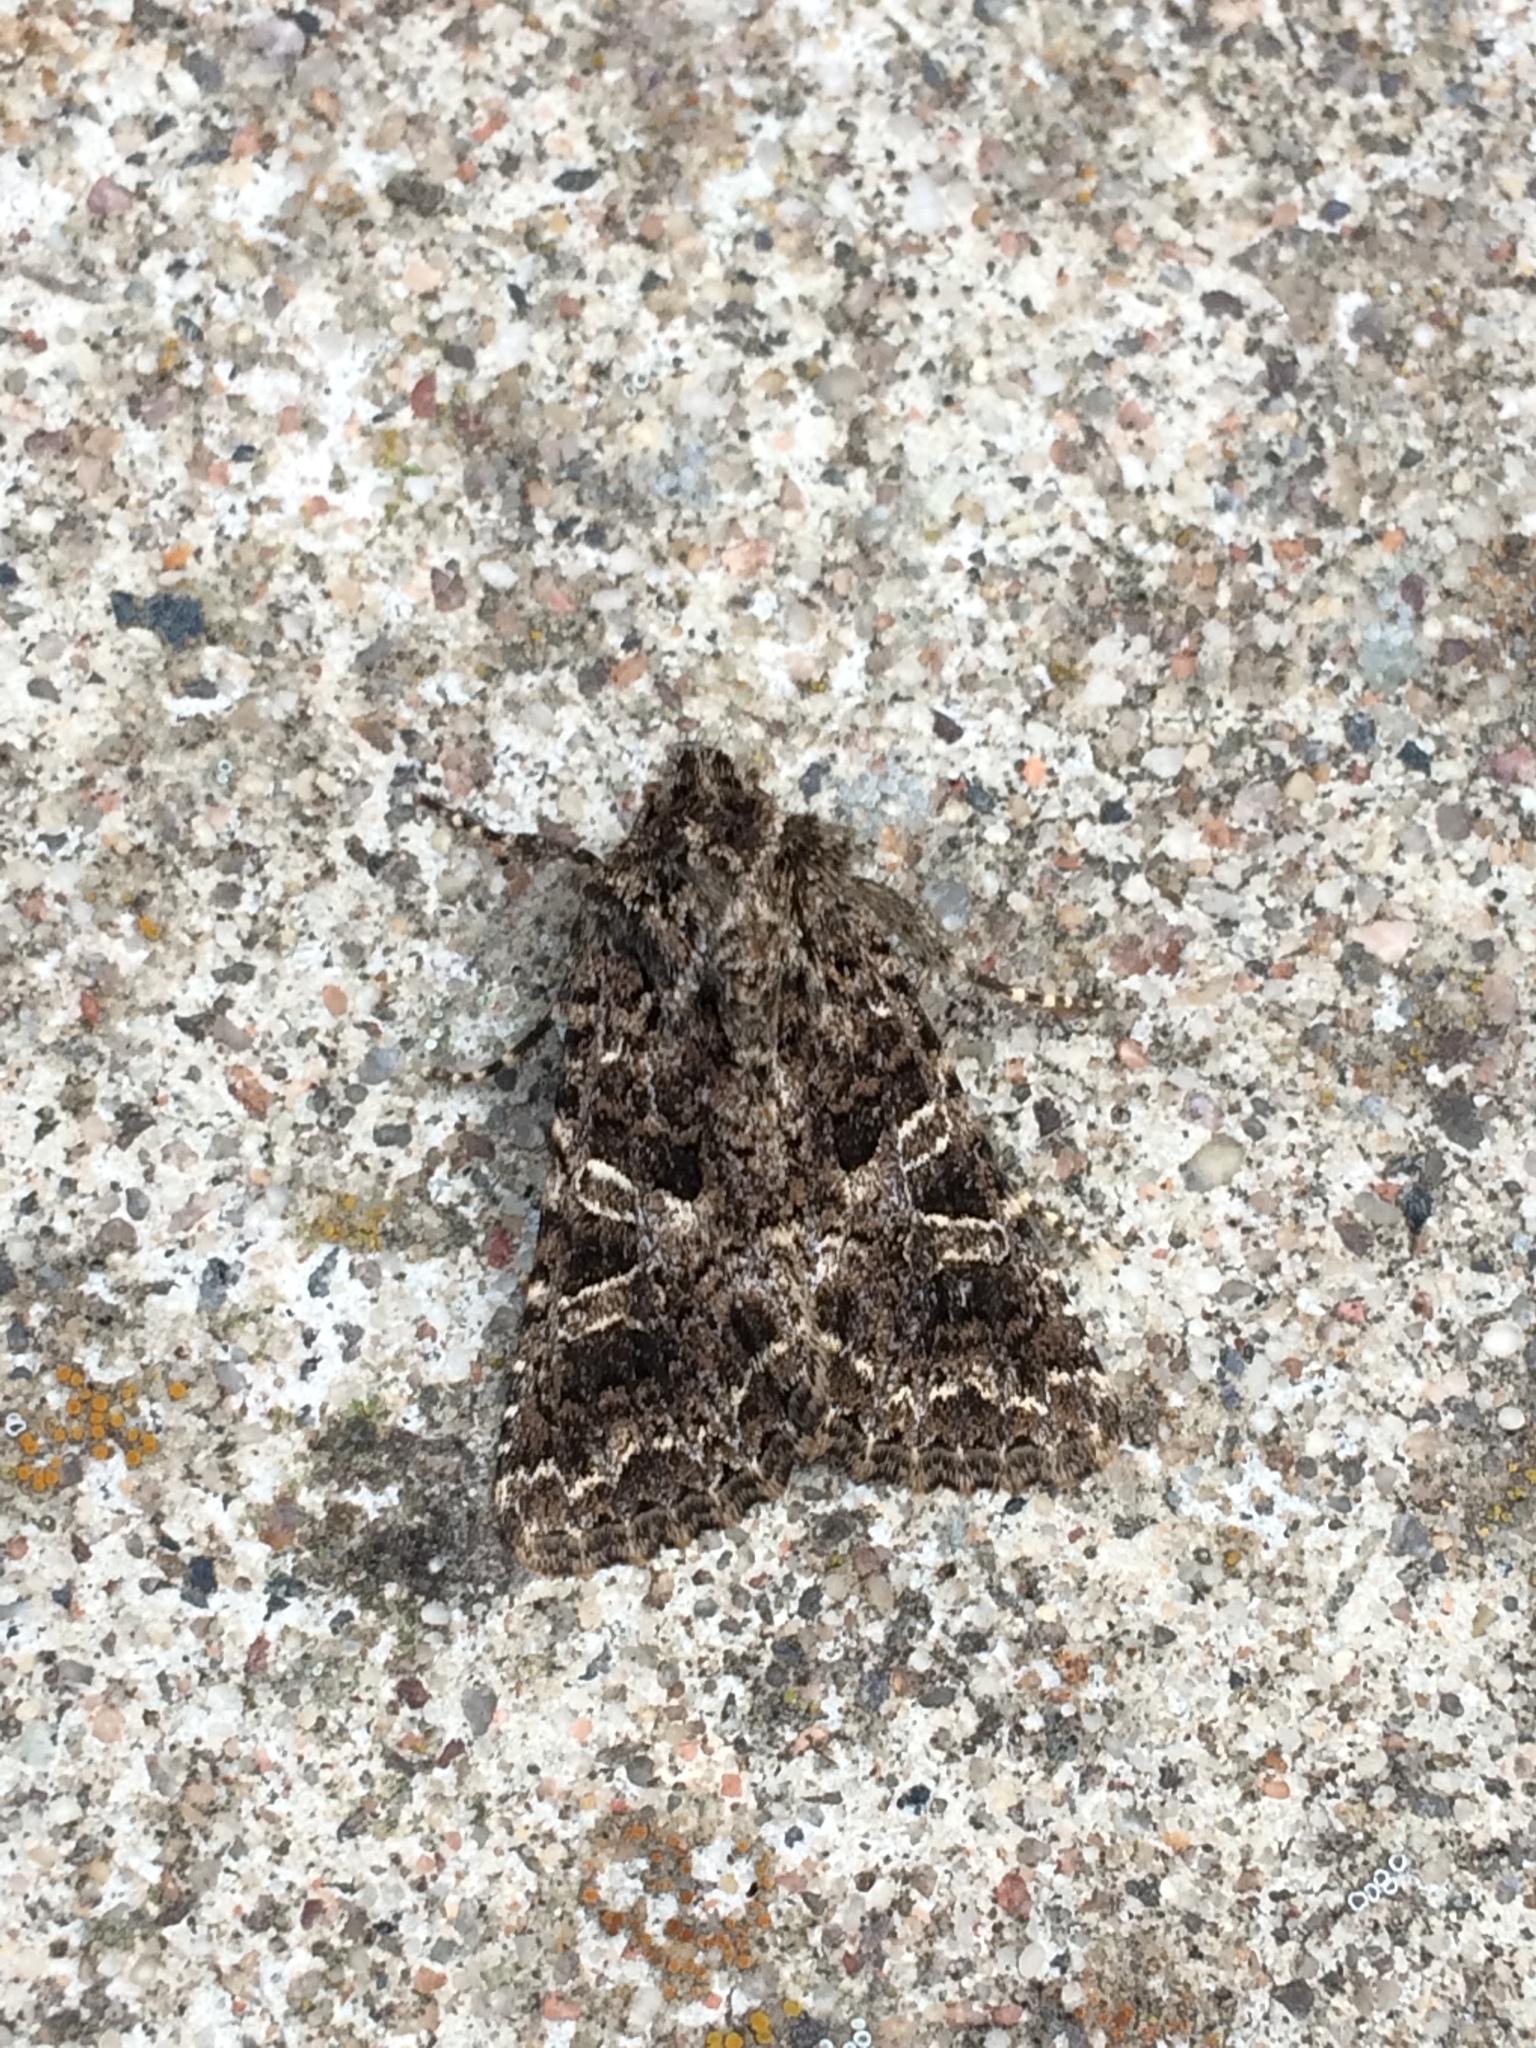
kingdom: Animalia
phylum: Arthropoda
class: Insecta
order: Lepidoptera
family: Noctuidae
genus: Sideridis
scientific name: Sideridis rivularis
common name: Campion
